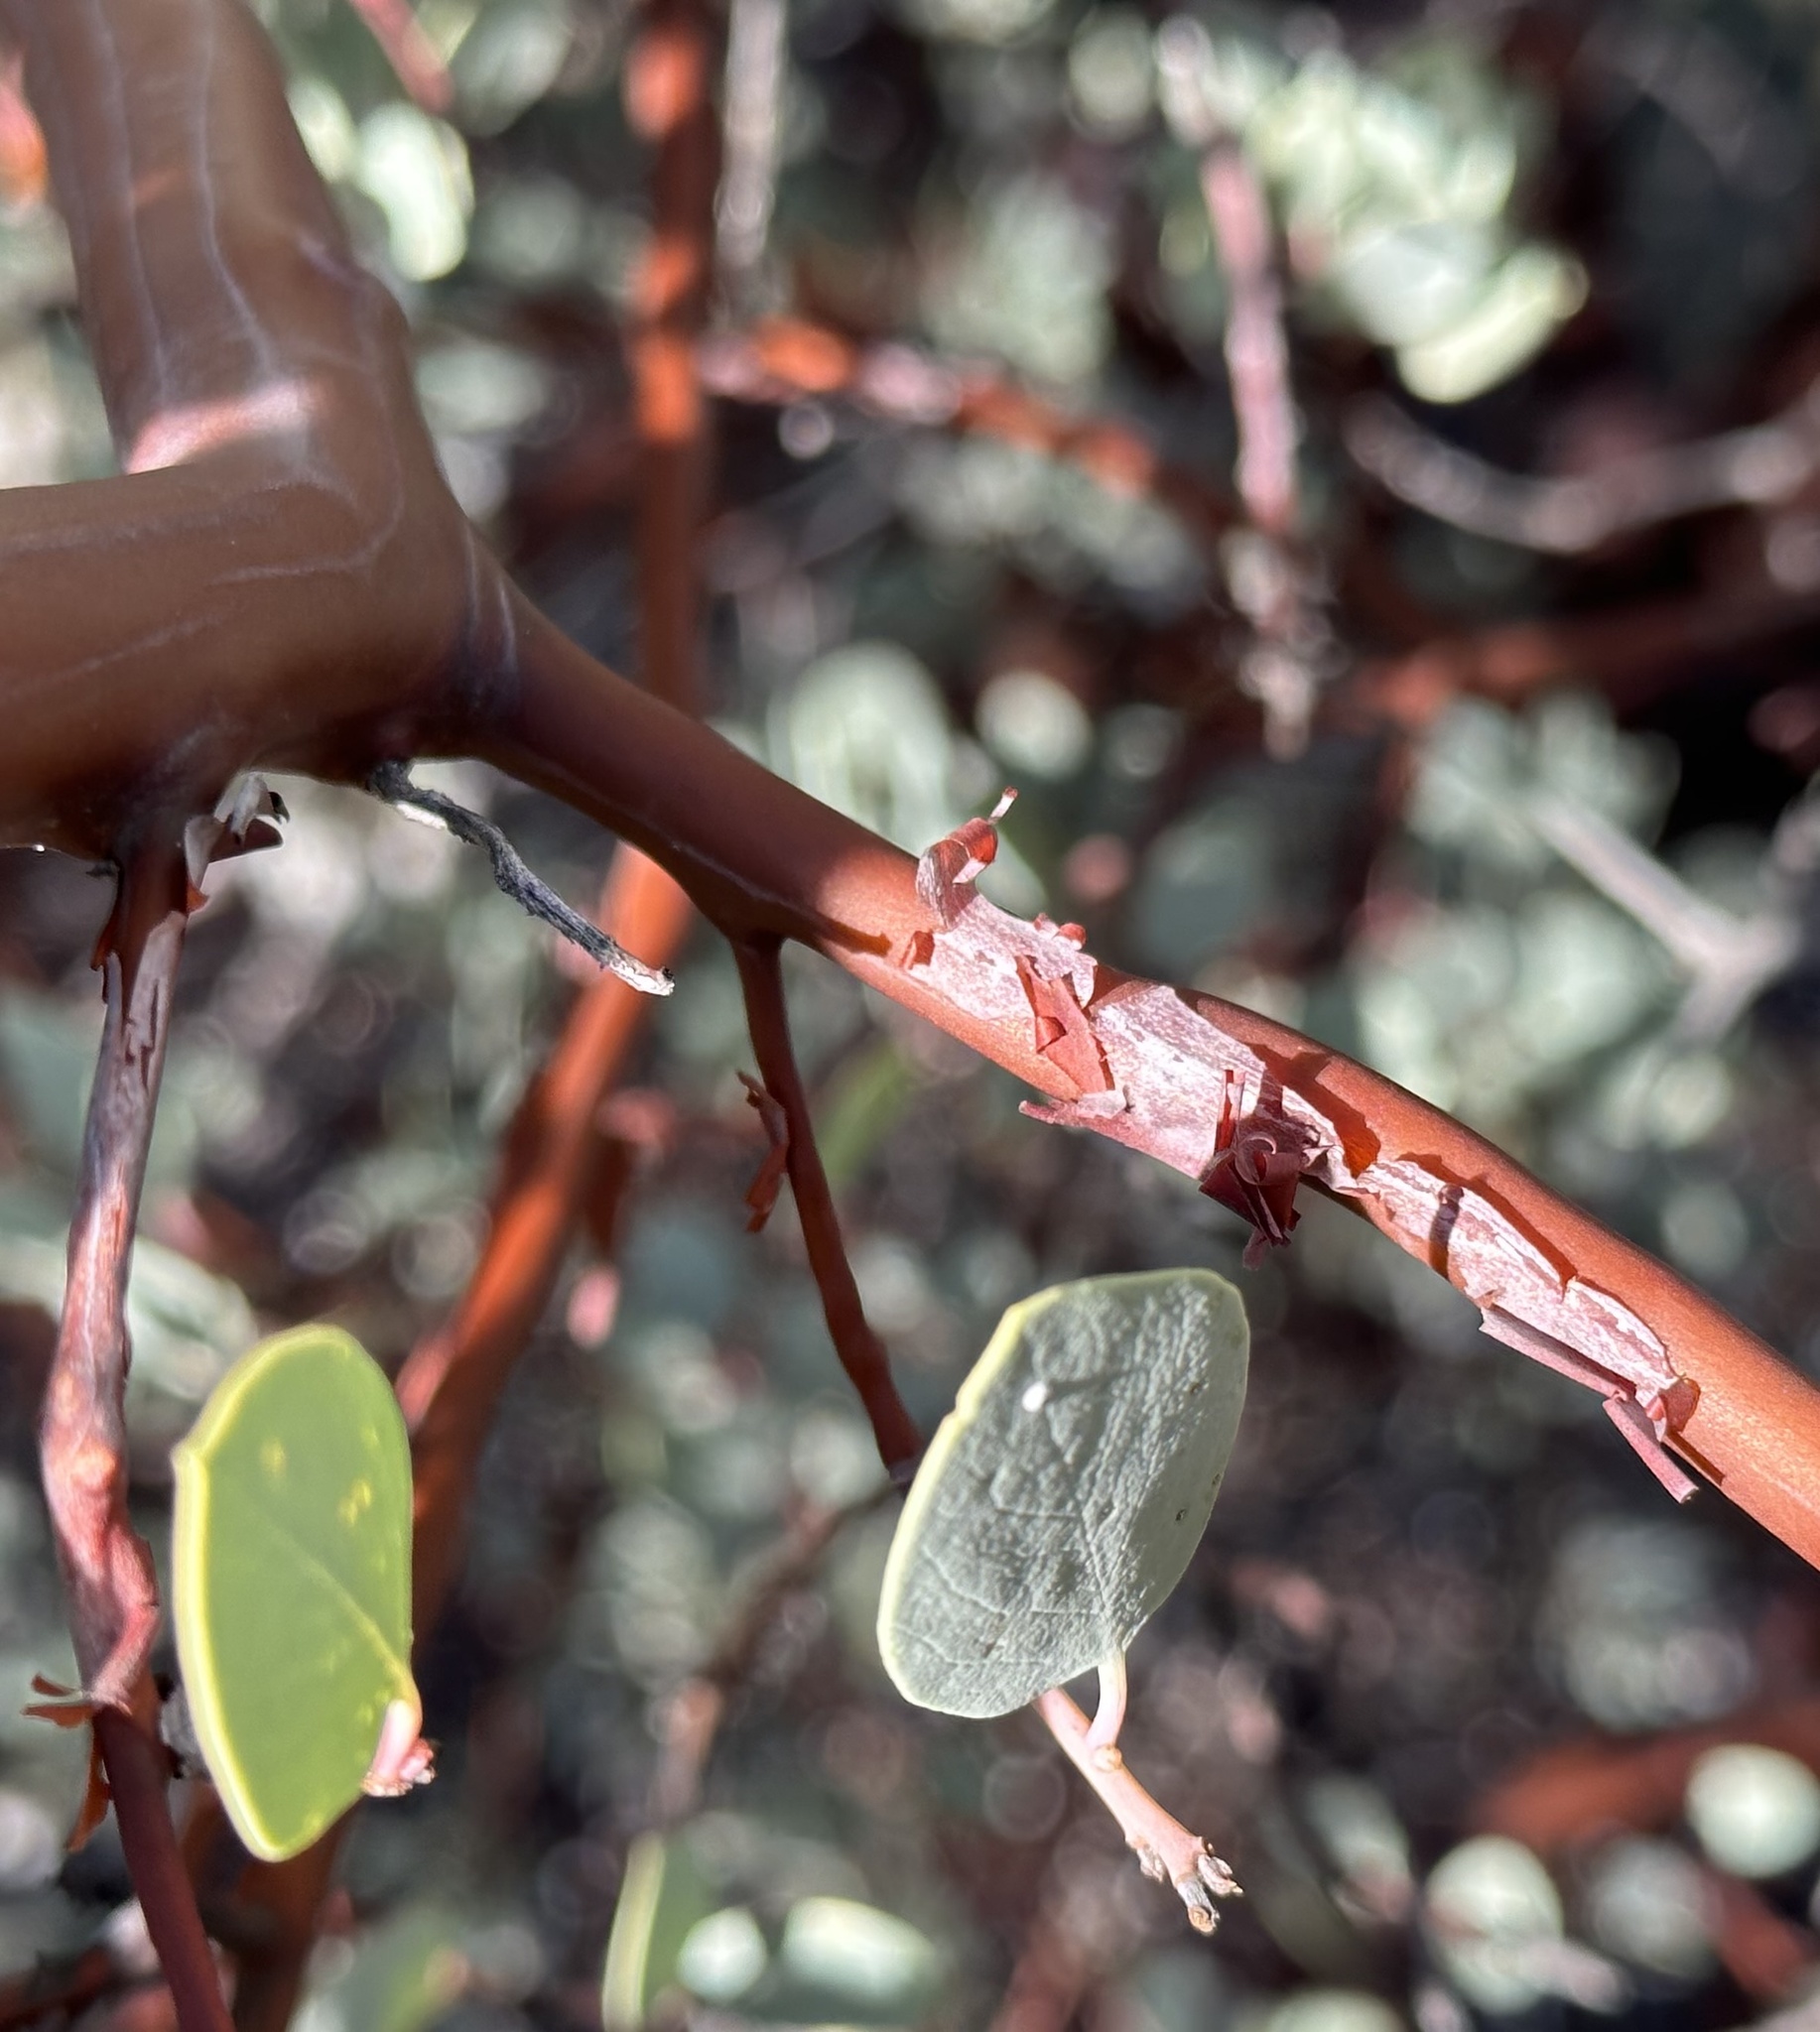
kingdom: Plantae
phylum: Tracheophyta
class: Magnoliopsida
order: Ericales
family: Ericaceae
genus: Arctostaphylos
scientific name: Arctostaphylos glauca
